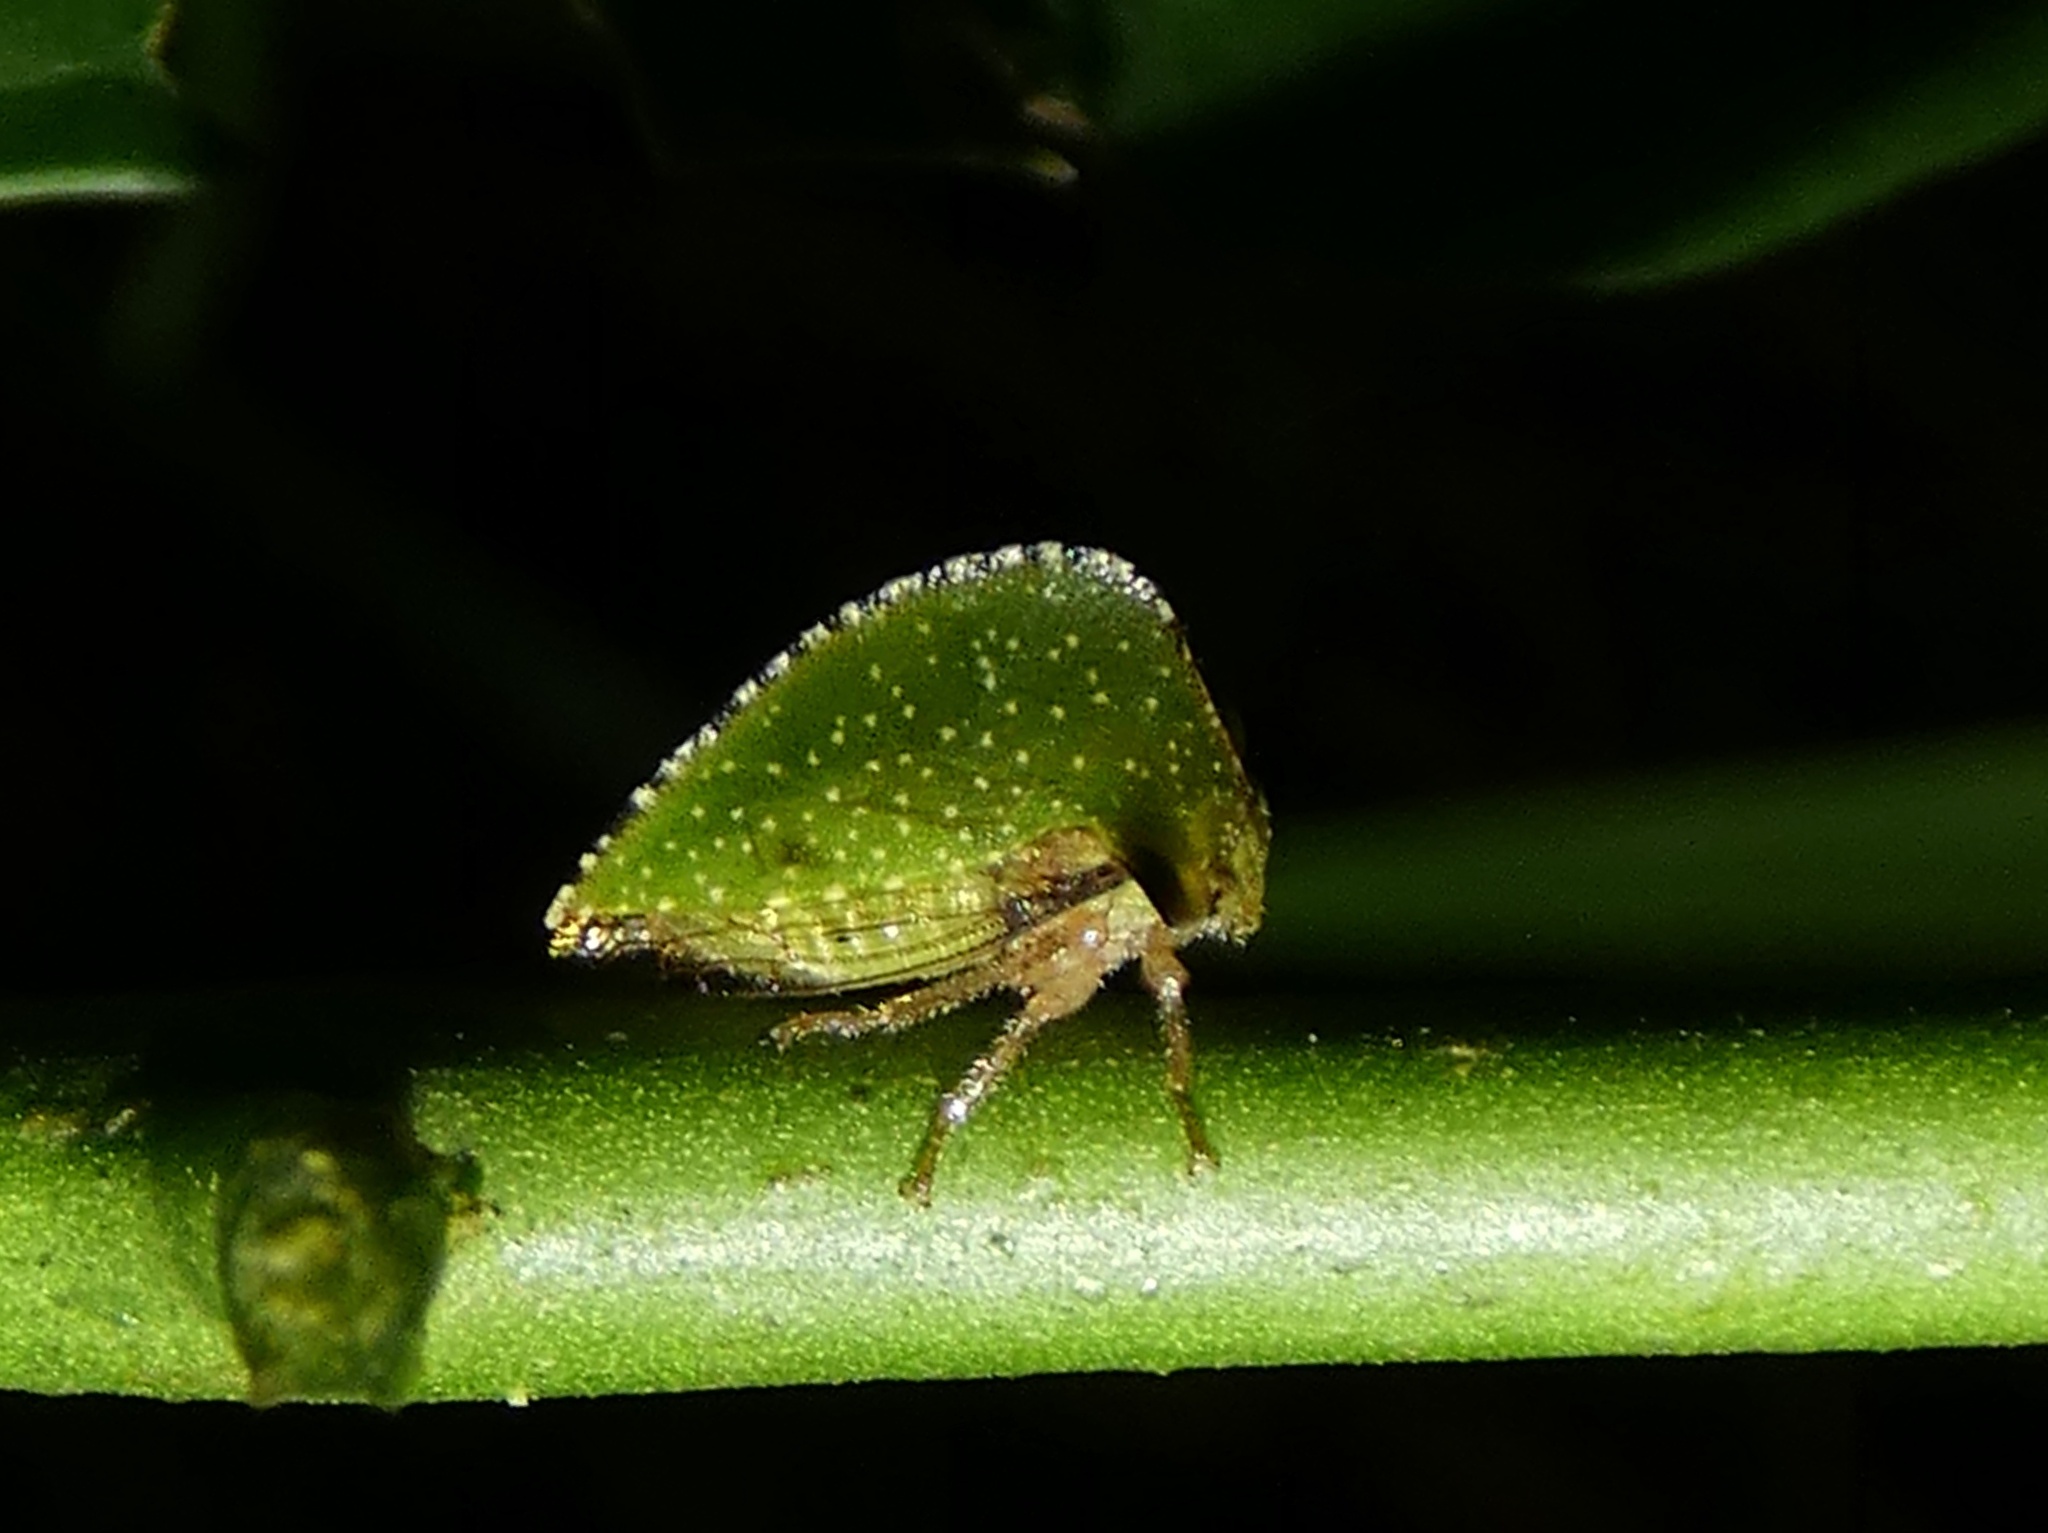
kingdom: Animalia
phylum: Arthropoda
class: Insecta
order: Hemiptera
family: Membracidae
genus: Antianthe
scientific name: Antianthe expansa
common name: Keeled tree hopper
